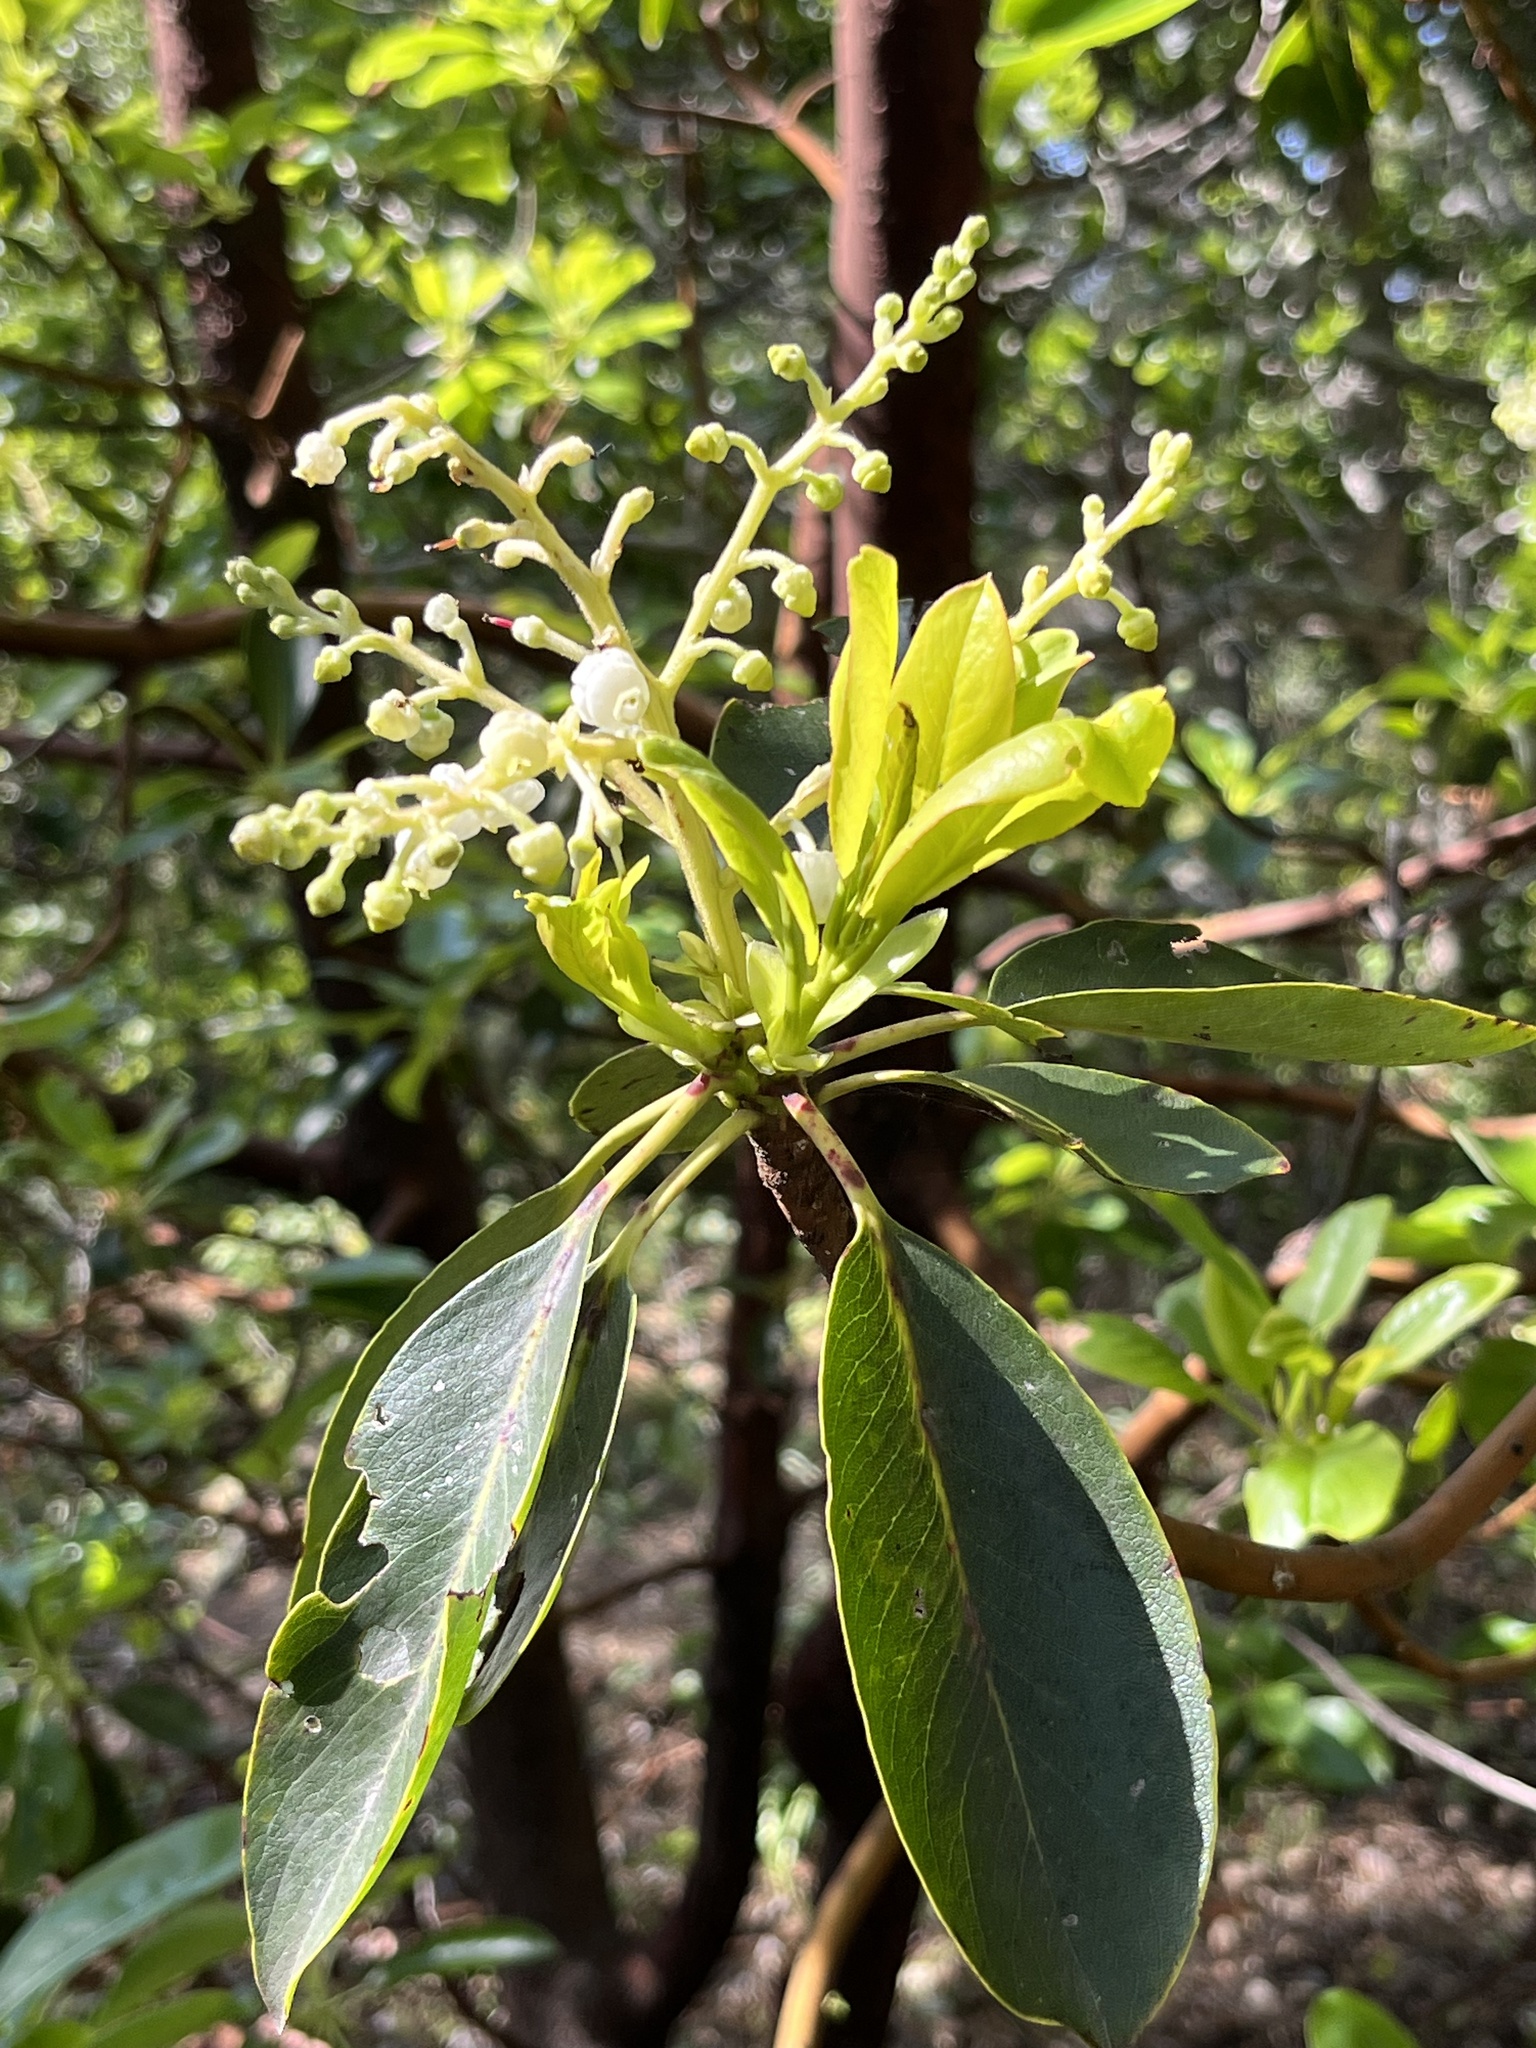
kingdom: Plantae
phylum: Tracheophyta
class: Magnoliopsida
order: Ericales
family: Ericaceae
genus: Arbutus
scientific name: Arbutus menziesii
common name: Pacific madrone
